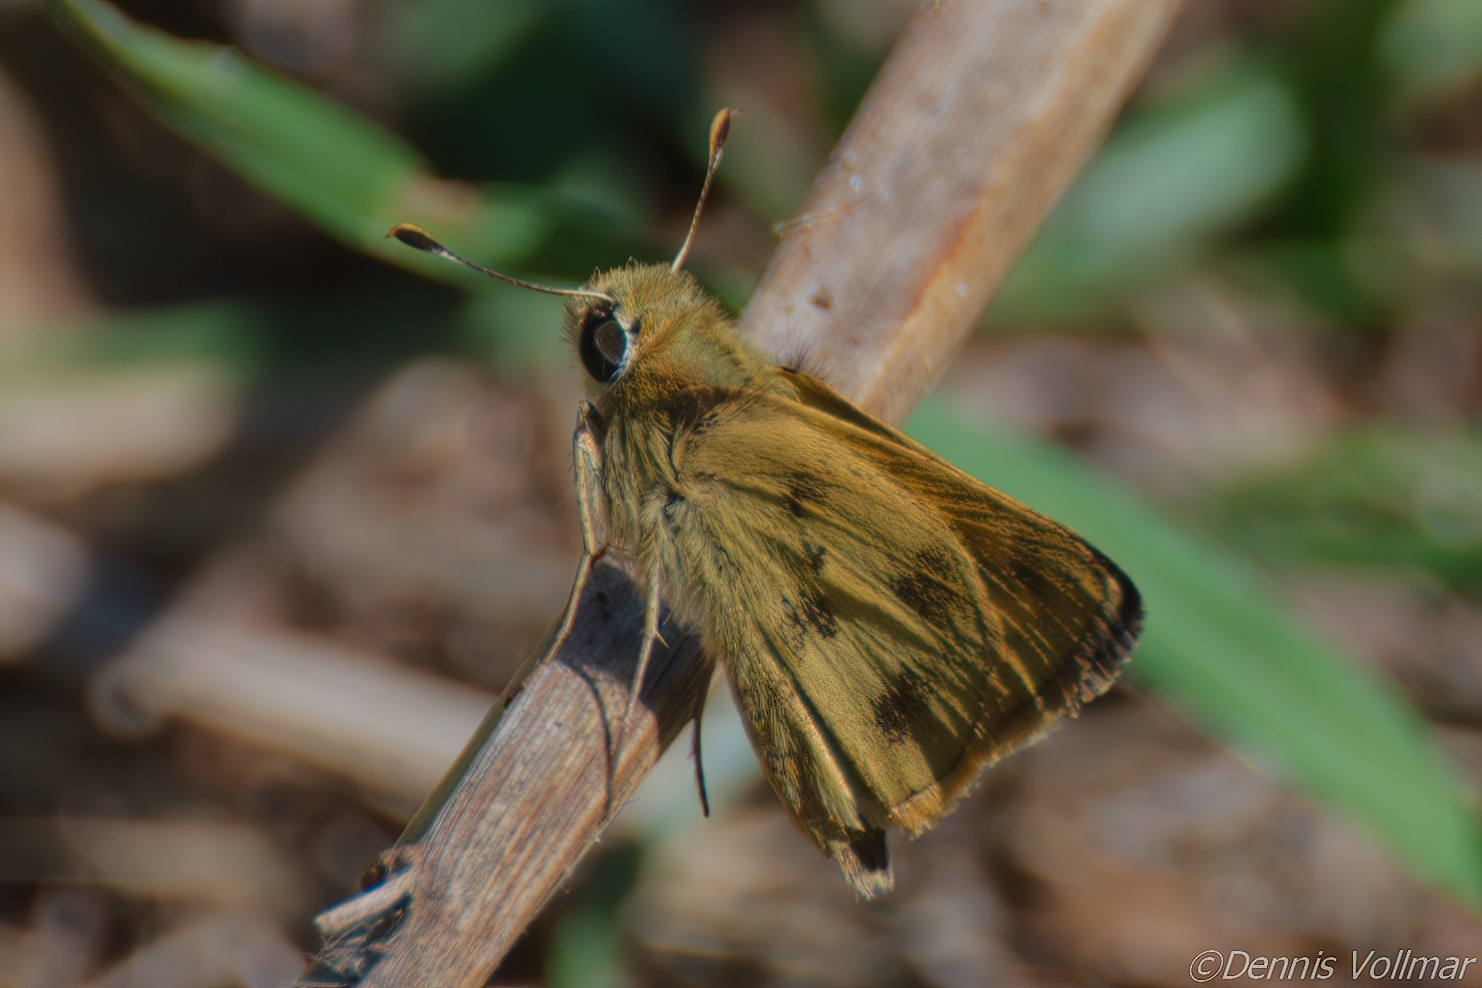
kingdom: Animalia
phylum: Arthropoda
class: Insecta
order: Lepidoptera
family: Hesperiidae
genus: Polites
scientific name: Polites vibex
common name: Whirlabout
